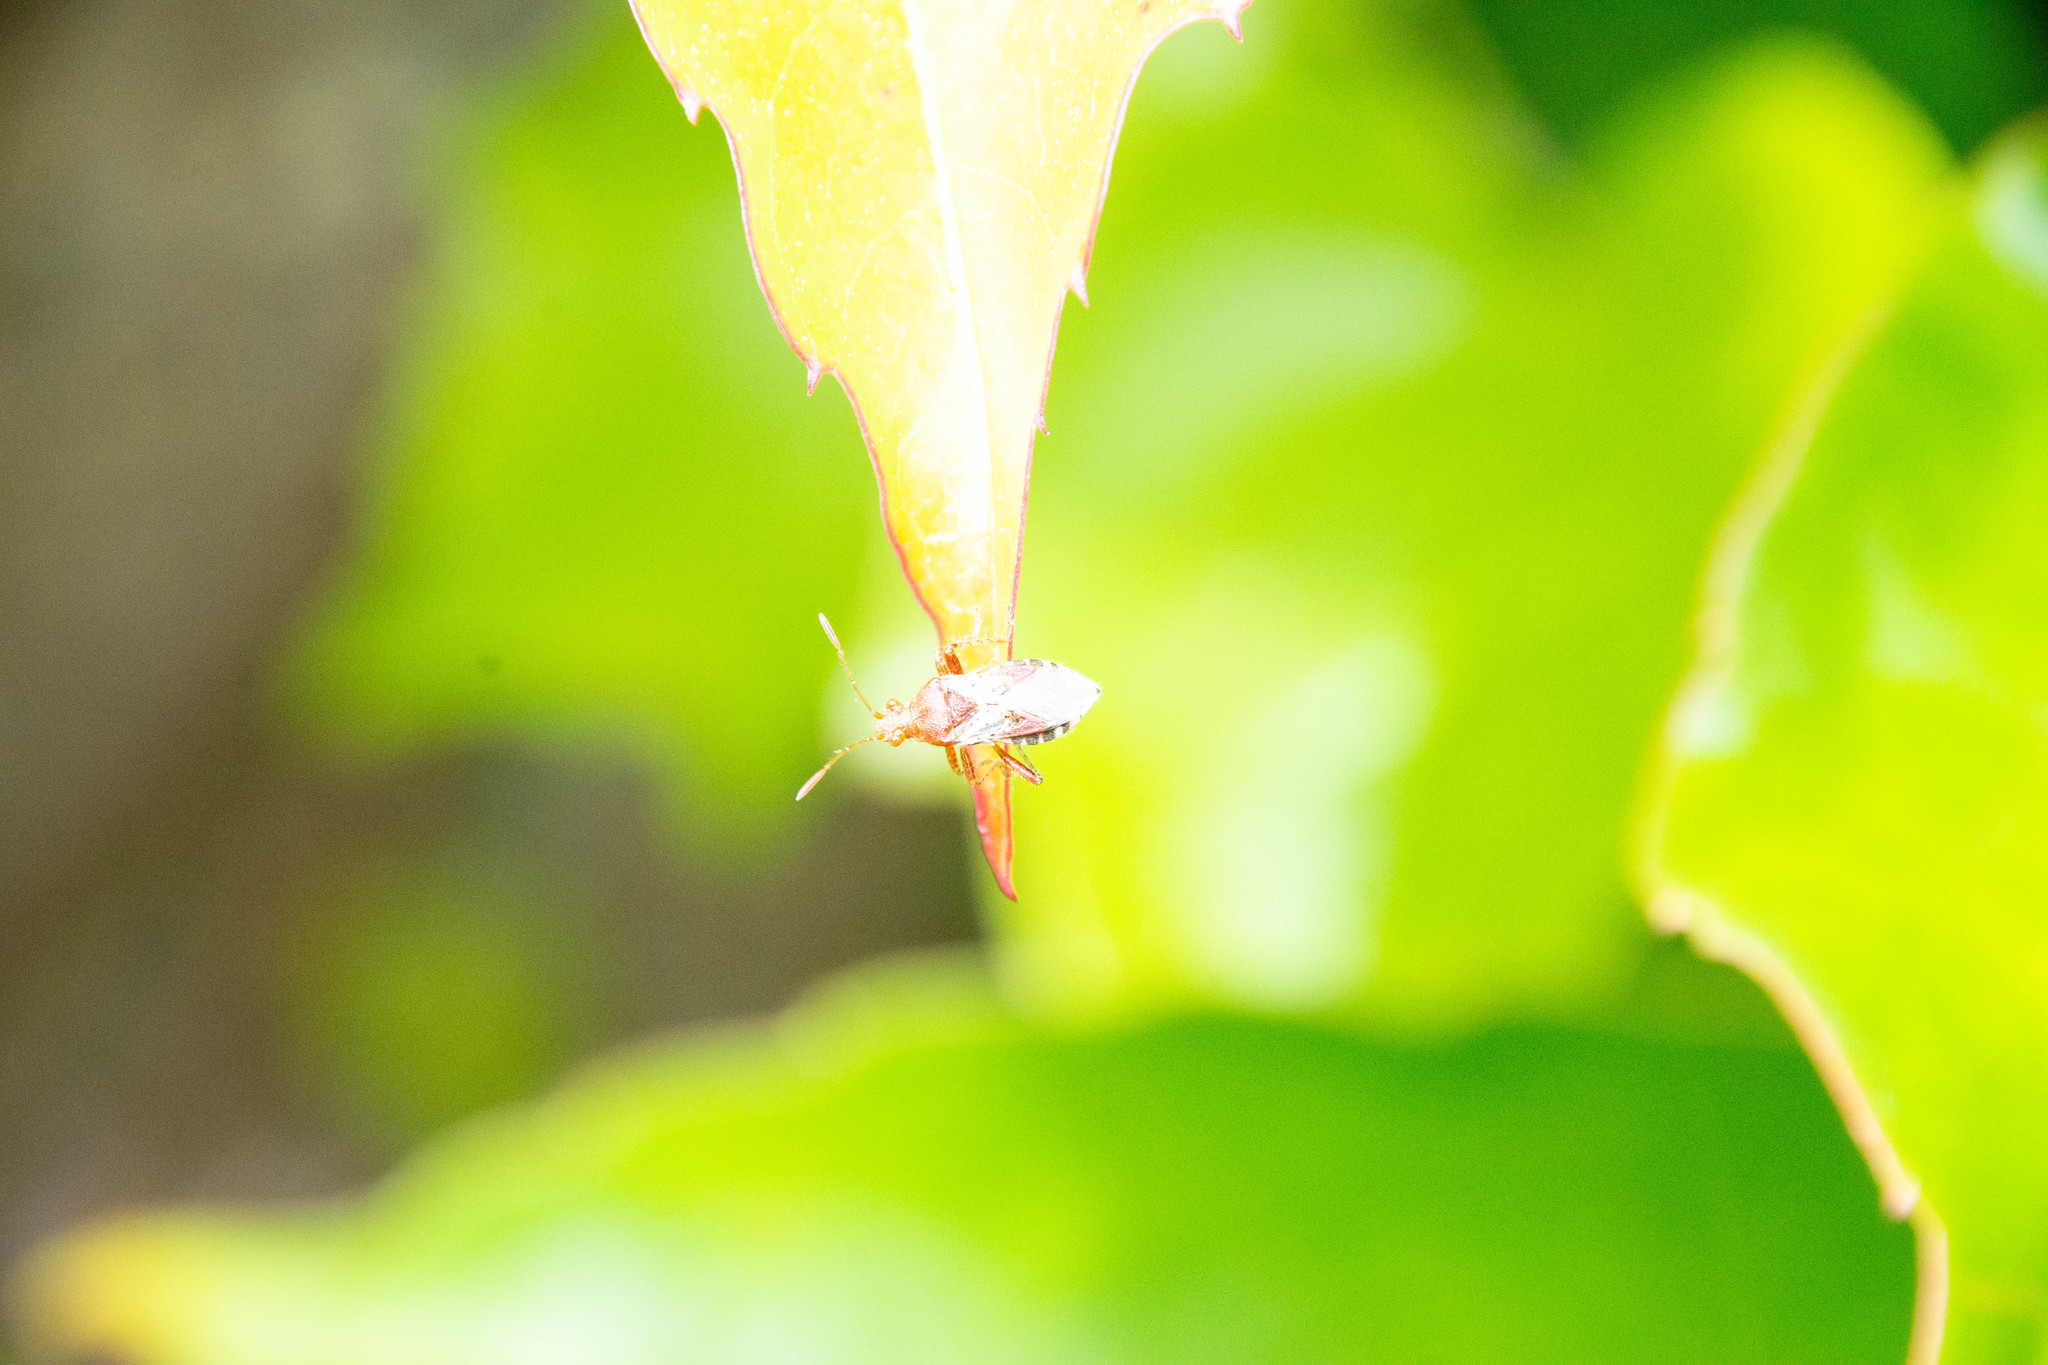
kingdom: Animalia
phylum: Arthropoda
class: Insecta
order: Hemiptera
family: Rhopalidae
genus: Rhopalus
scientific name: Rhopalus subrufus
